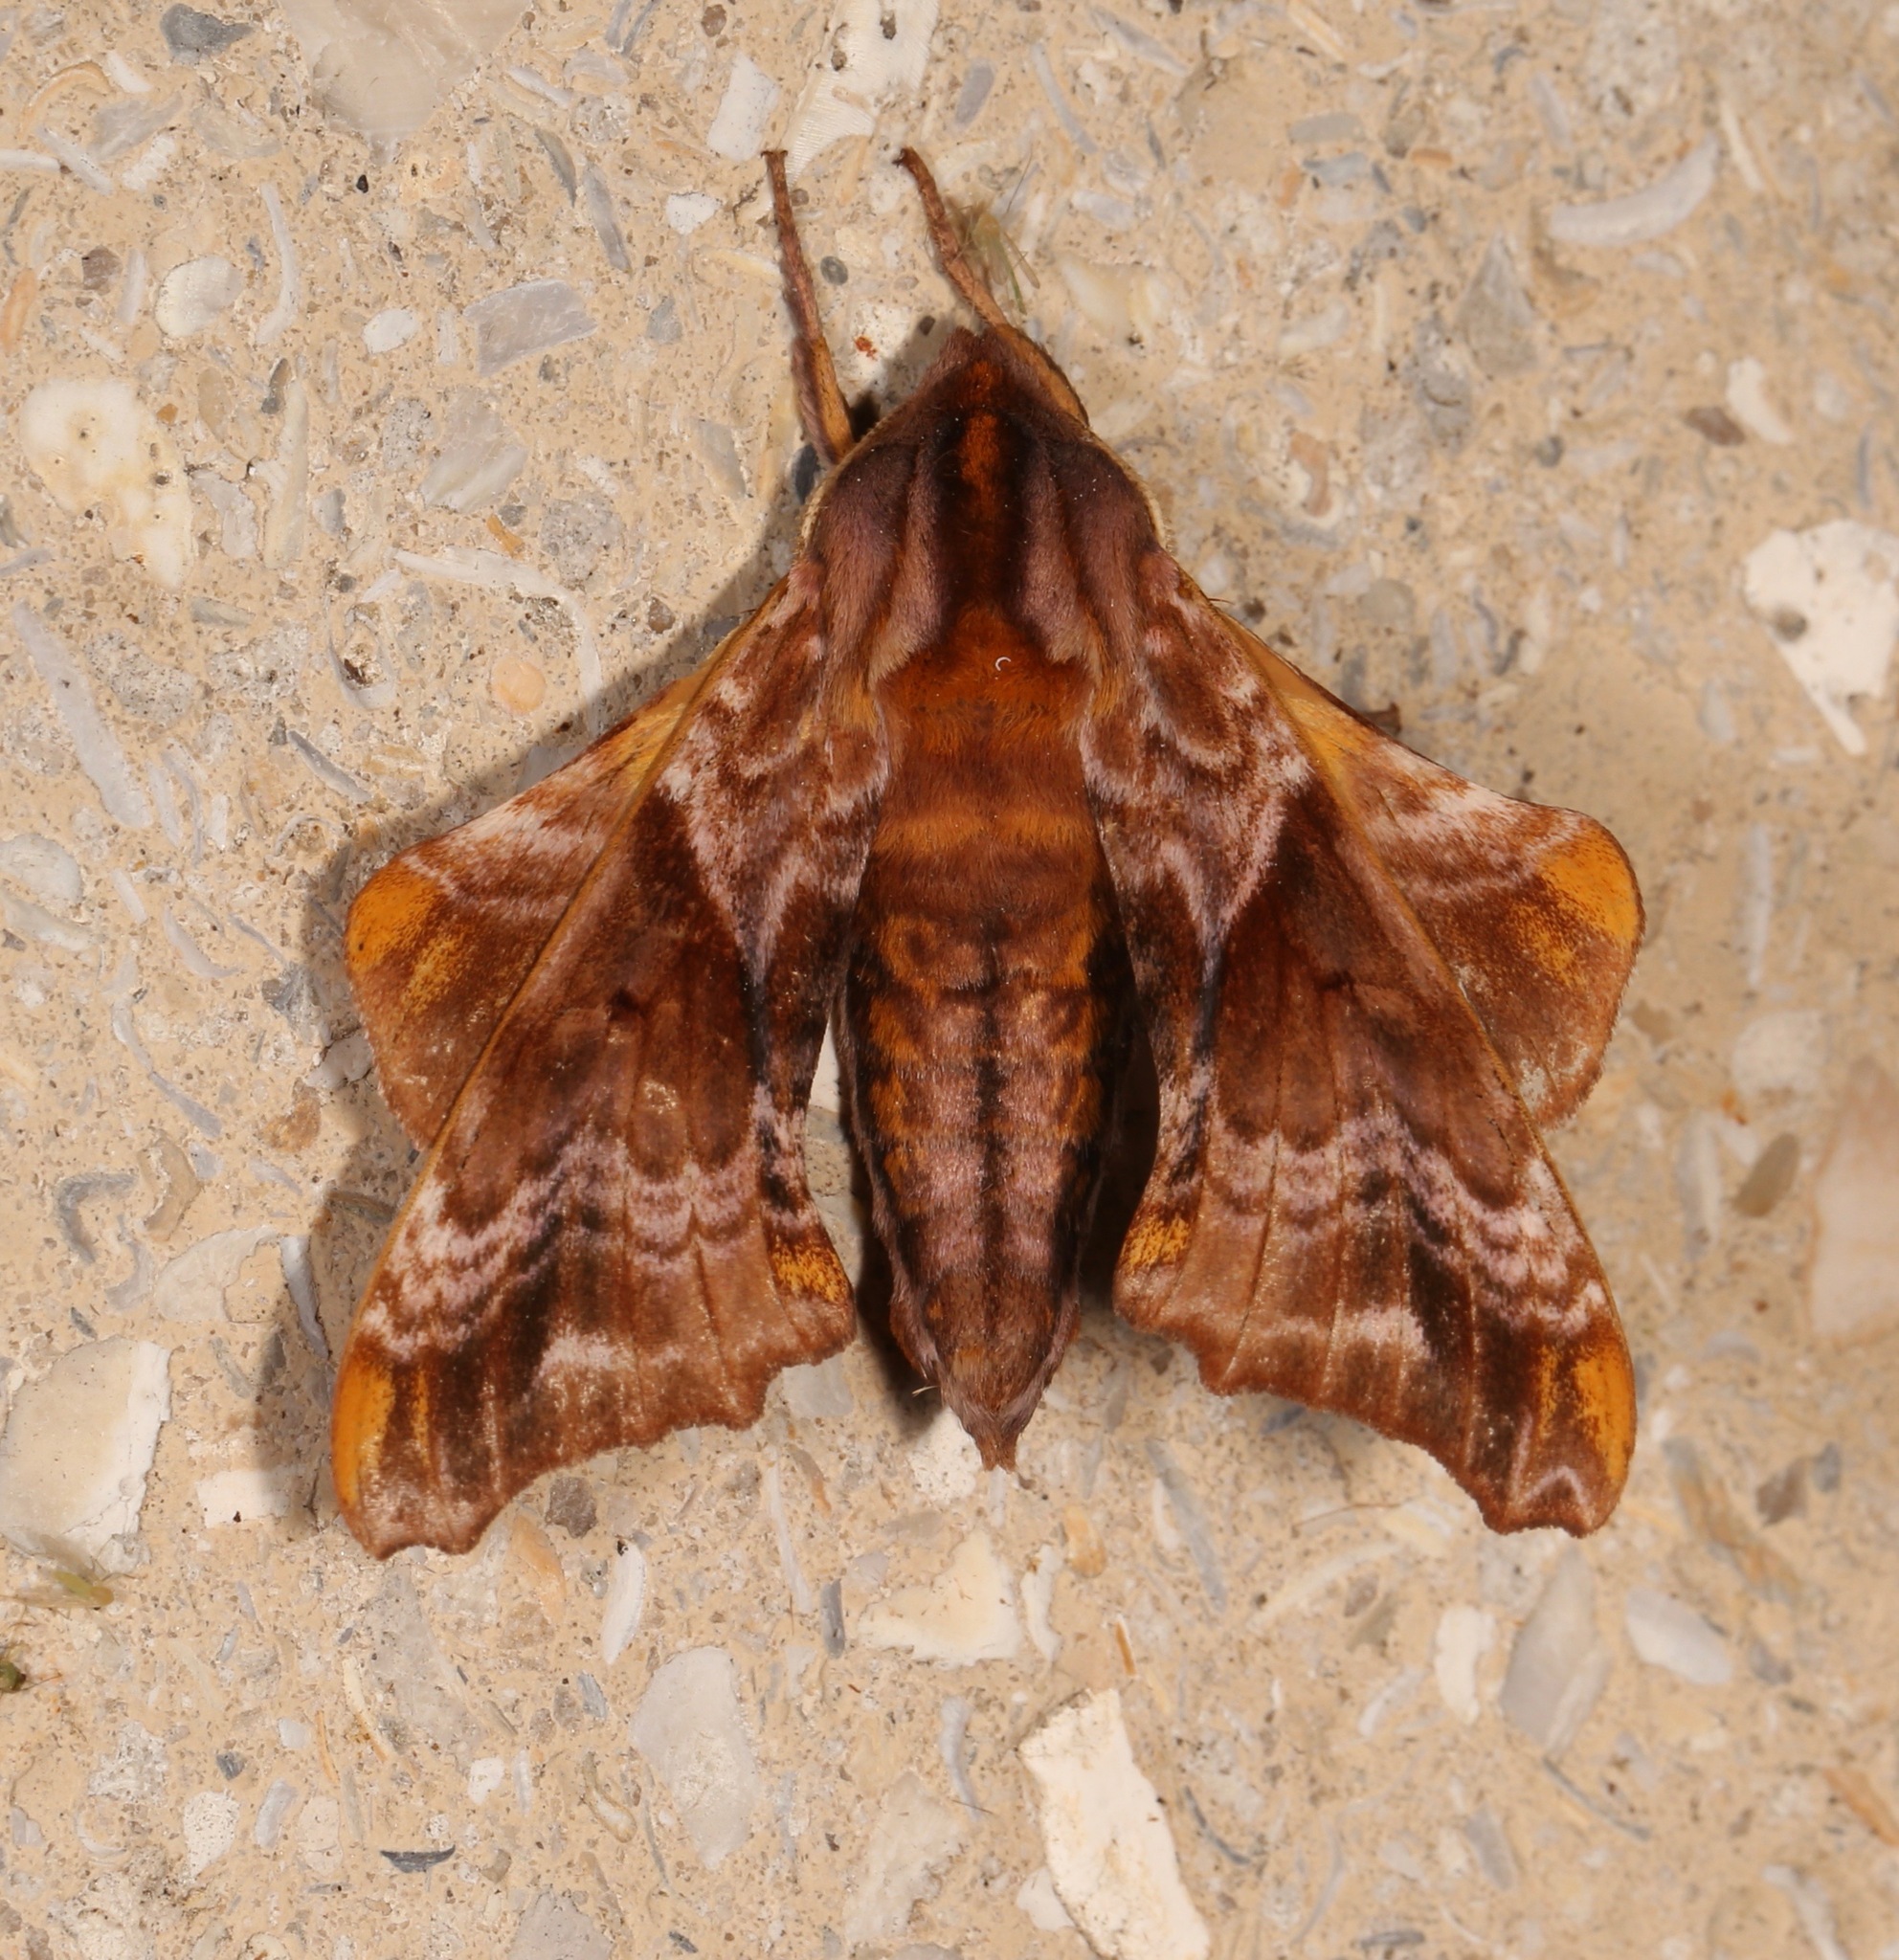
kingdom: Animalia
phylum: Arthropoda
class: Insecta
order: Lepidoptera
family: Sphingidae
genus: Paonias
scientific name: Paonias myops
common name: Small-eyed sphinx
